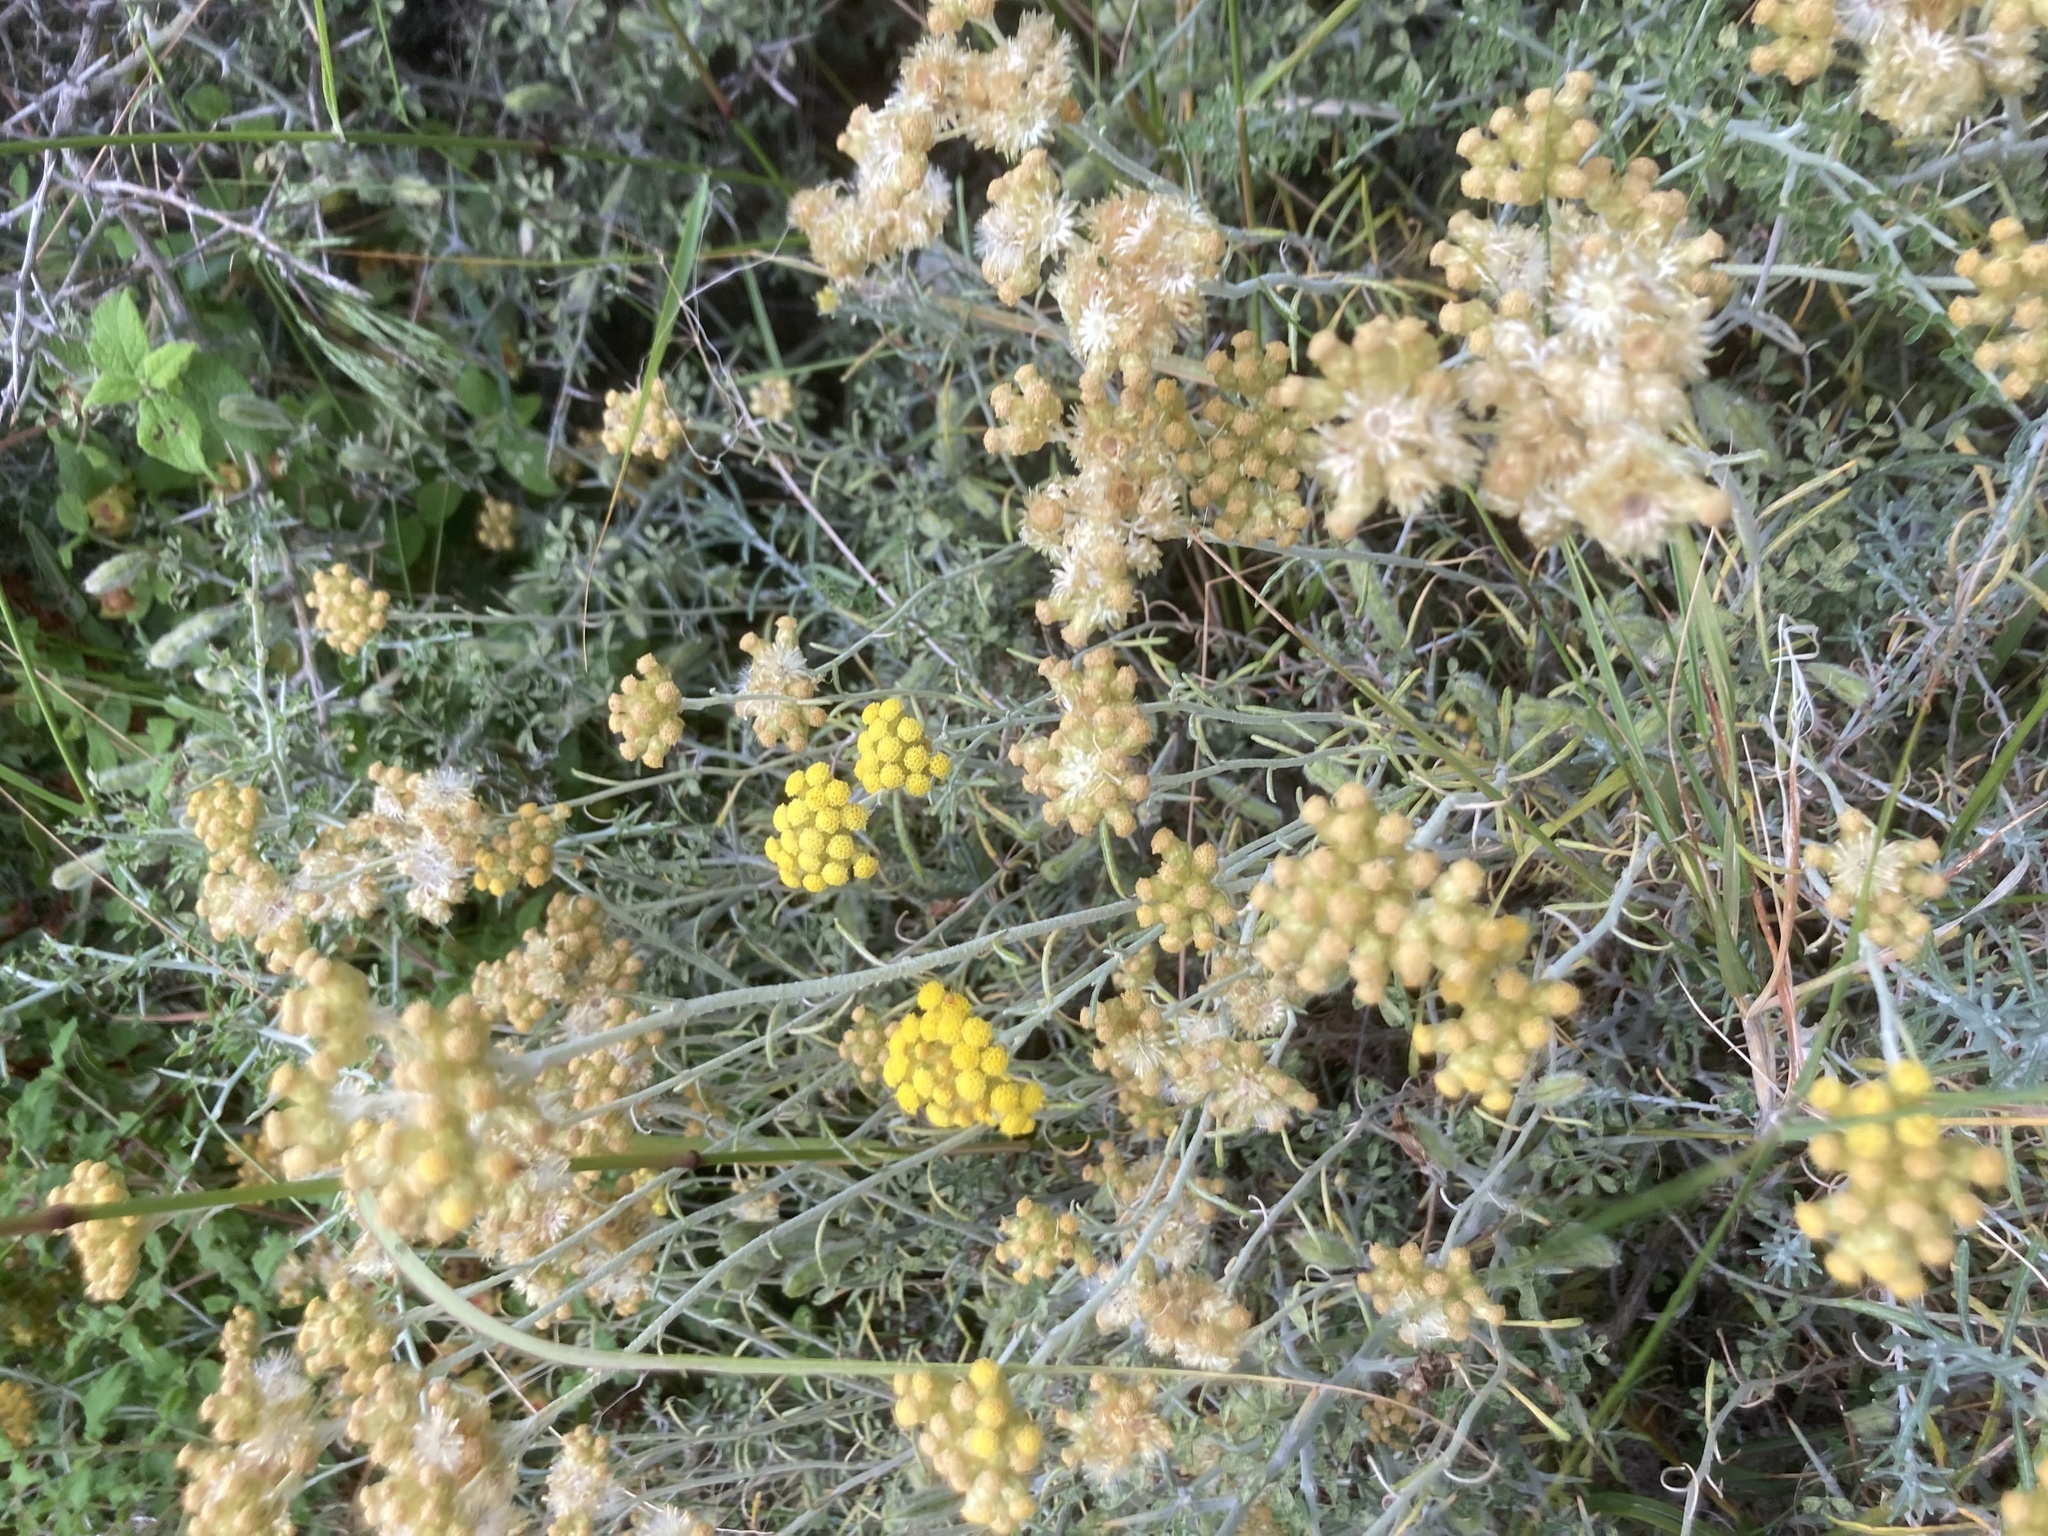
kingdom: Plantae
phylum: Tracheophyta
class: Magnoliopsida
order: Asterales
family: Asteraceae
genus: Helichrysum
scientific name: Helichrysum stoechas
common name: Goldilocks
